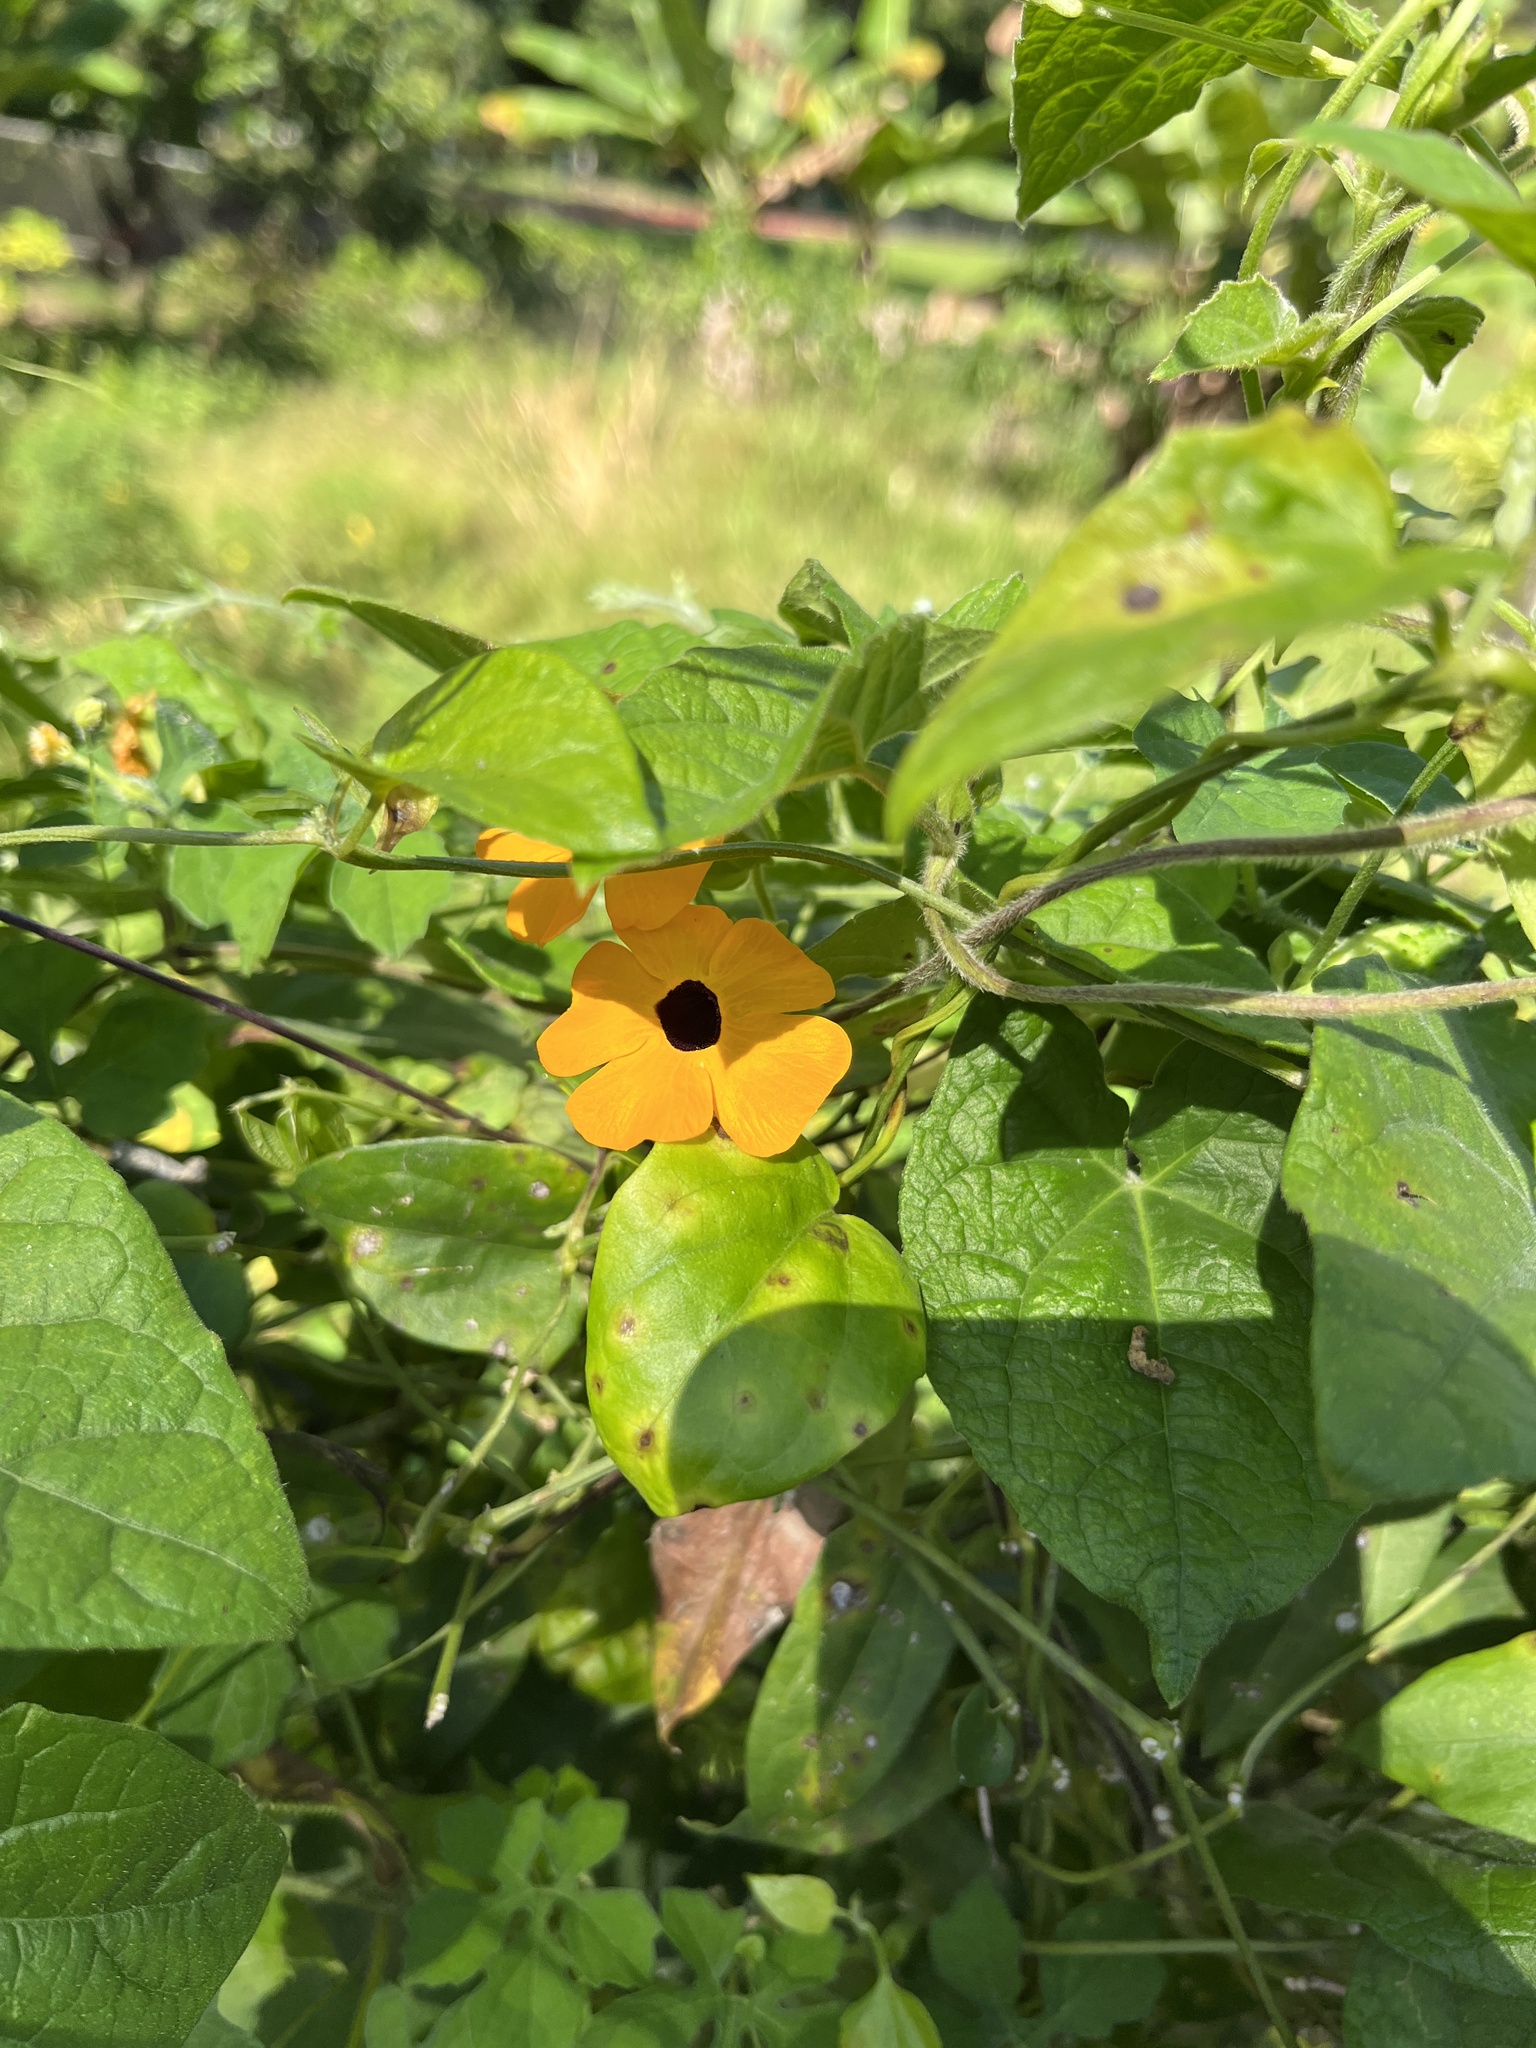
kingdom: Plantae
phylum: Tracheophyta
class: Magnoliopsida
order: Lamiales
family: Acanthaceae
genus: Thunbergia
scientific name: Thunbergia alata
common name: Blackeyed susan vine
